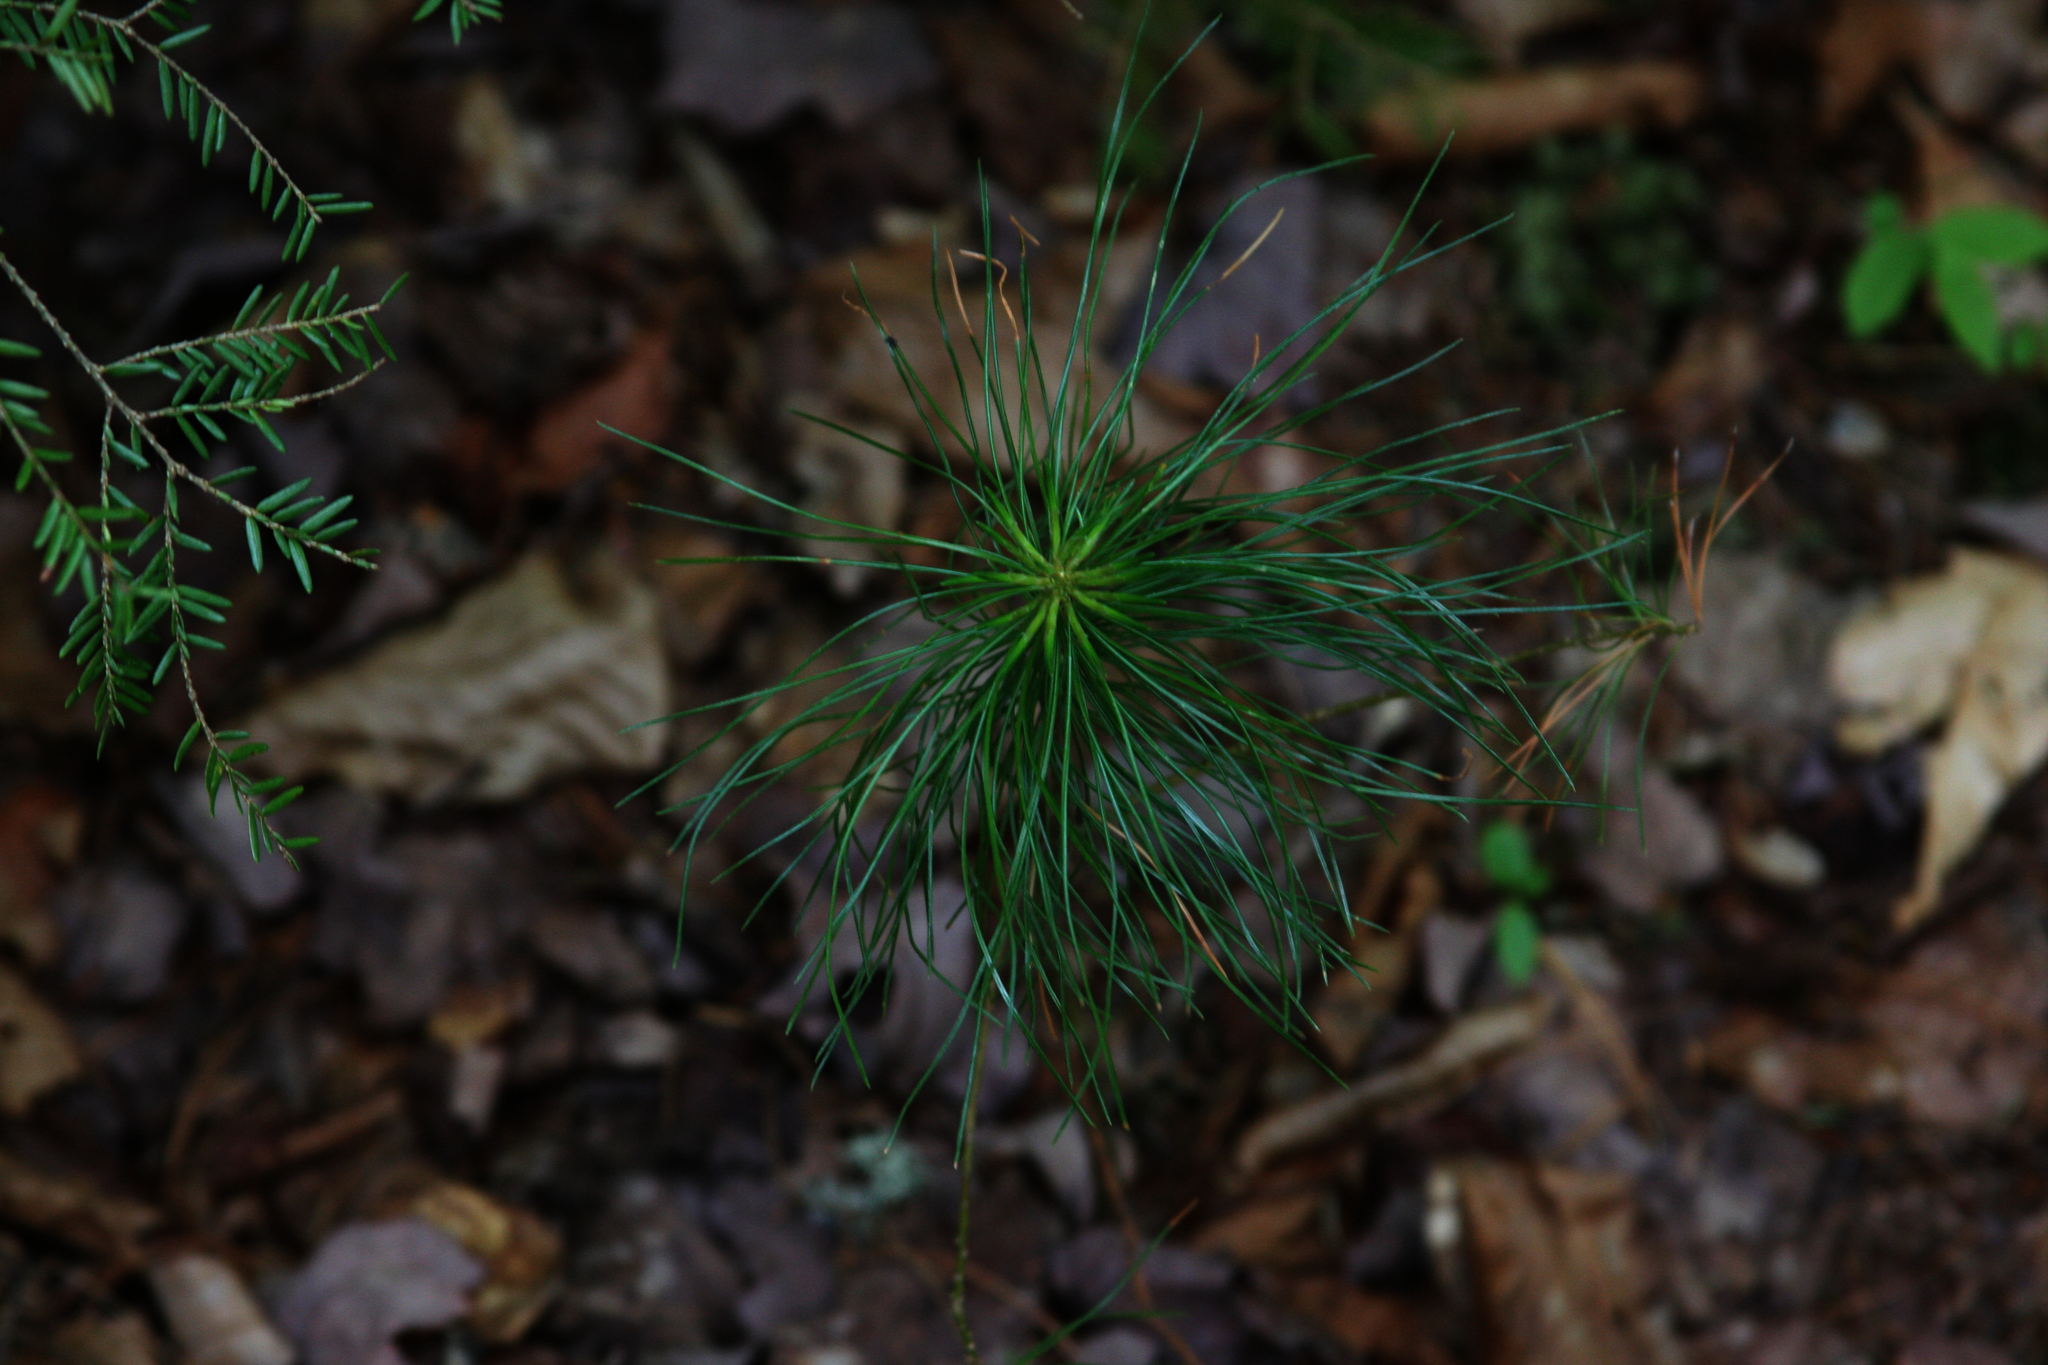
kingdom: Plantae
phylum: Tracheophyta
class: Pinopsida
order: Pinales
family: Pinaceae
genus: Pinus
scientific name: Pinus strobus
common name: Weymouth pine
